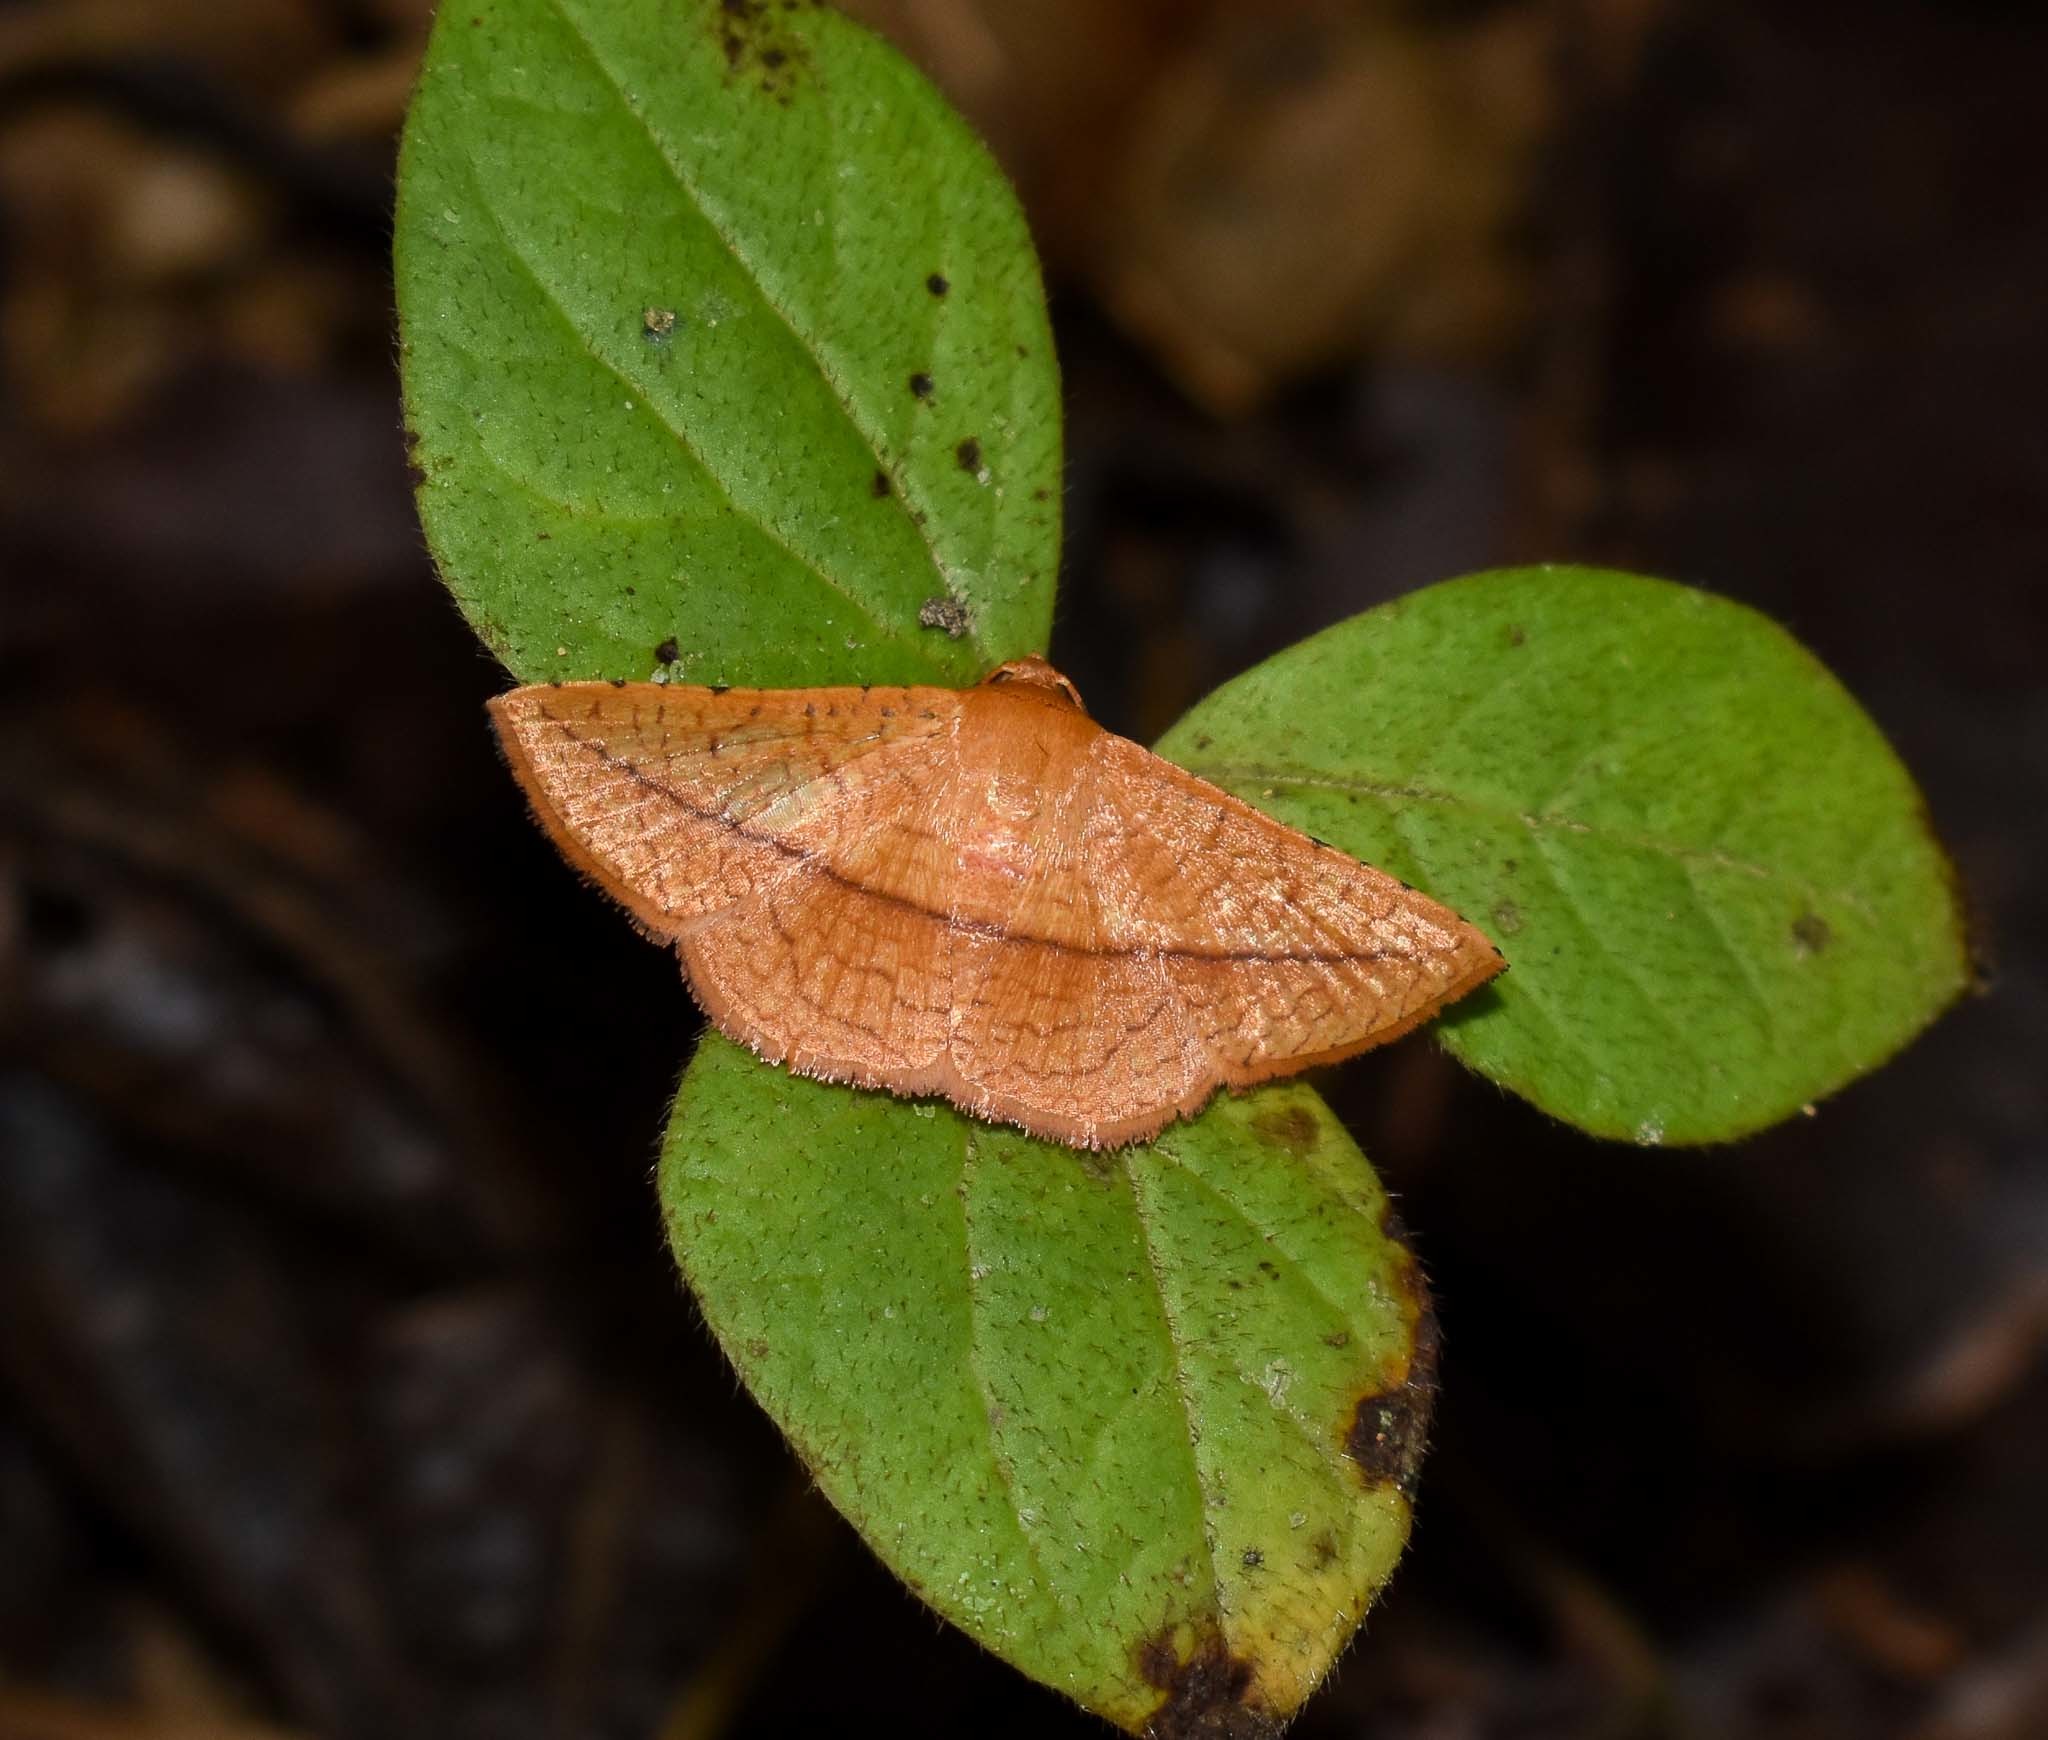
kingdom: Animalia
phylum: Arthropoda
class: Insecta
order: Lepidoptera
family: Thyrididae
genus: Striglina
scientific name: Striglina scitaria
